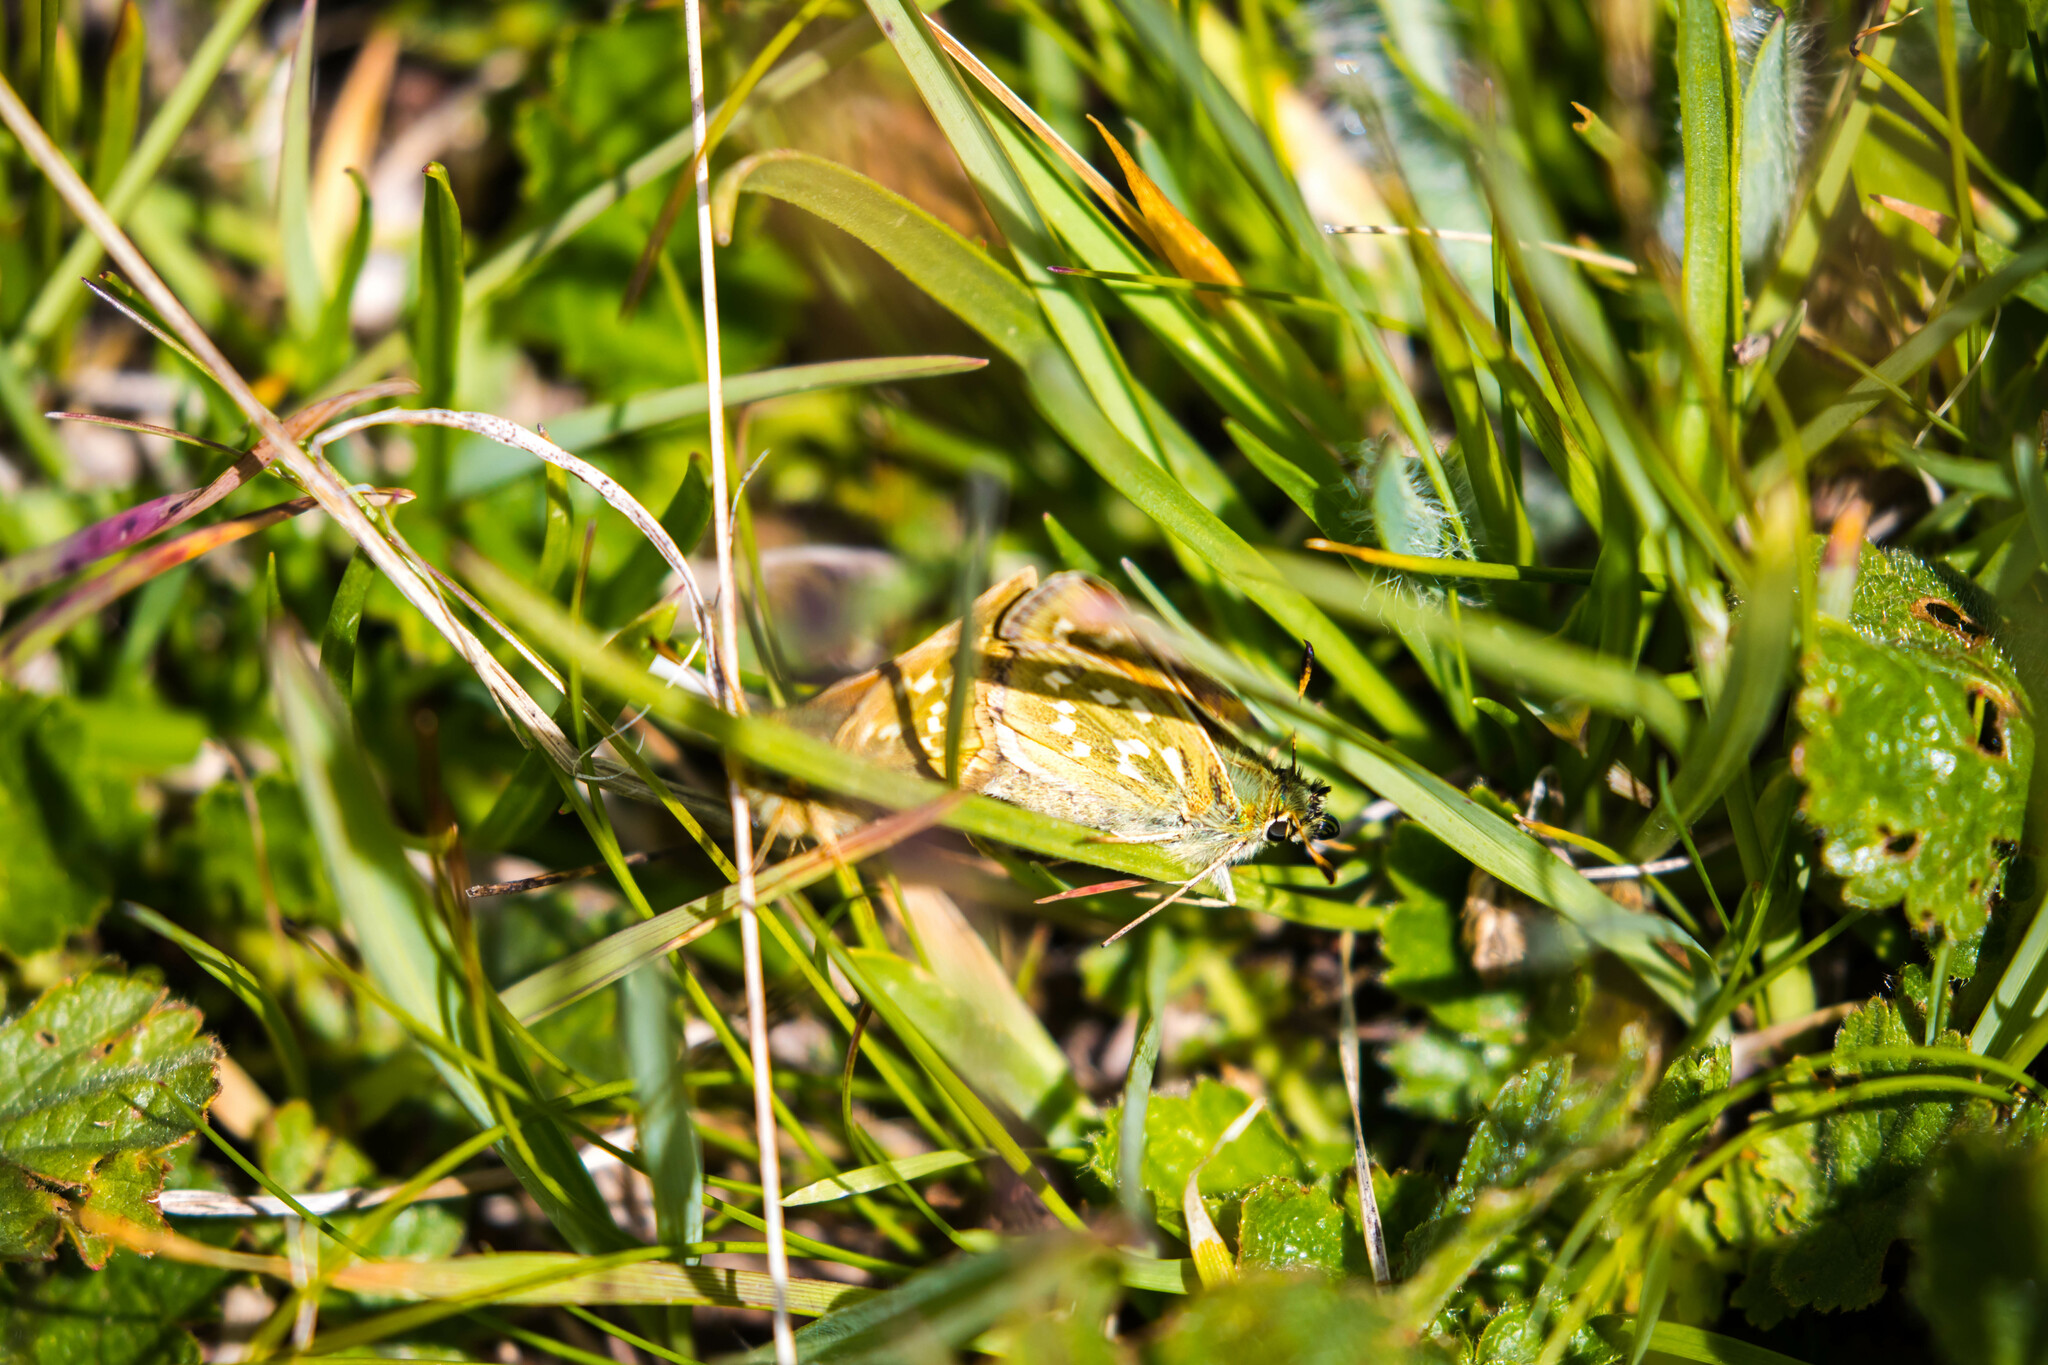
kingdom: Animalia
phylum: Arthropoda
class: Insecta
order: Lepidoptera
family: Hesperiidae
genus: Hesperia
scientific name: Hesperia comma
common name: Common branded skipper
